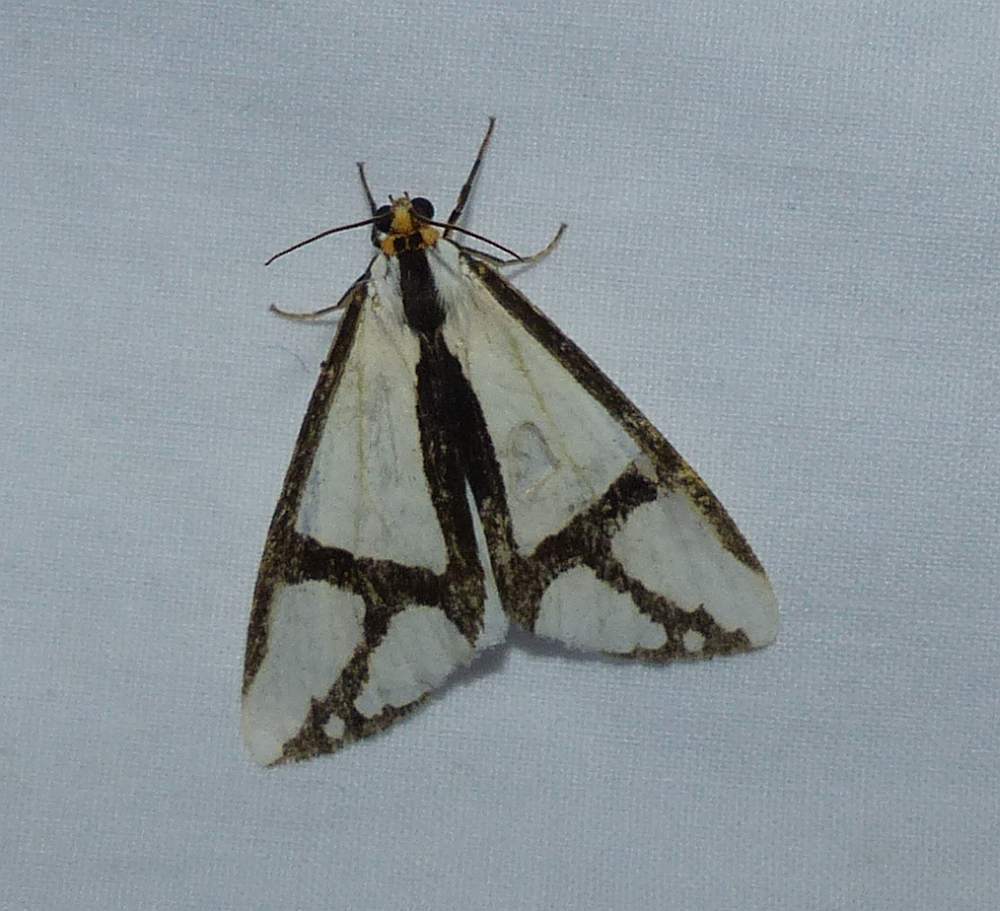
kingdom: Animalia
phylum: Arthropoda
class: Insecta
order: Lepidoptera
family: Erebidae
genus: Haploa
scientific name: Haploa contigua
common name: Neighbor moth
